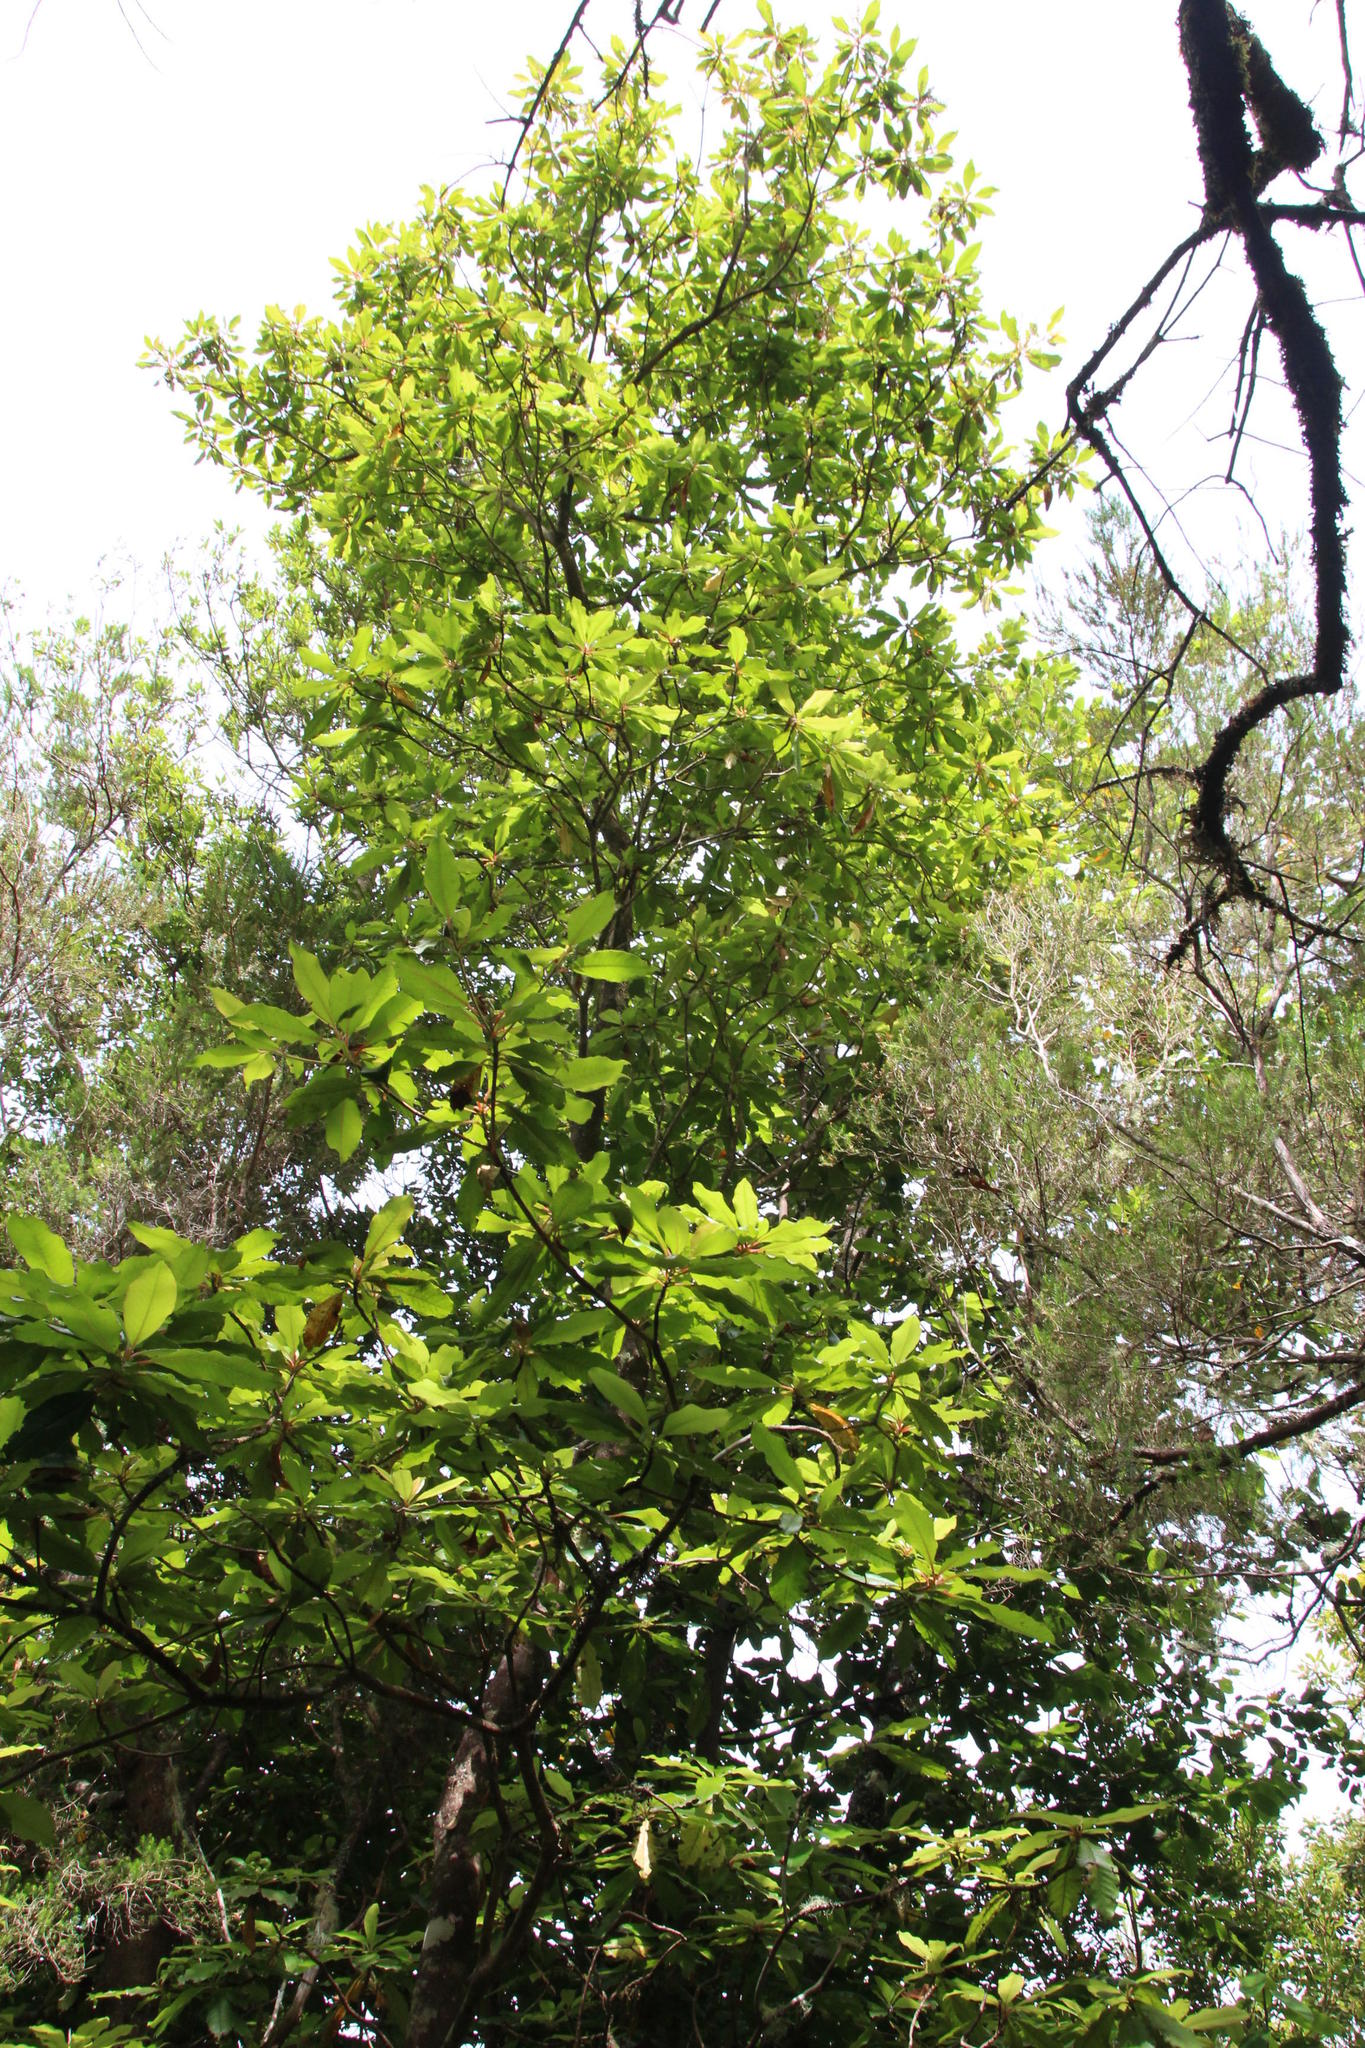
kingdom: Plantae
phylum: Tracheophyta
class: Magnoliopsida
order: Ericales
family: Clethraceae
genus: Clethra
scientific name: Clethra arborea
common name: Lily-of-the-valley-tree
